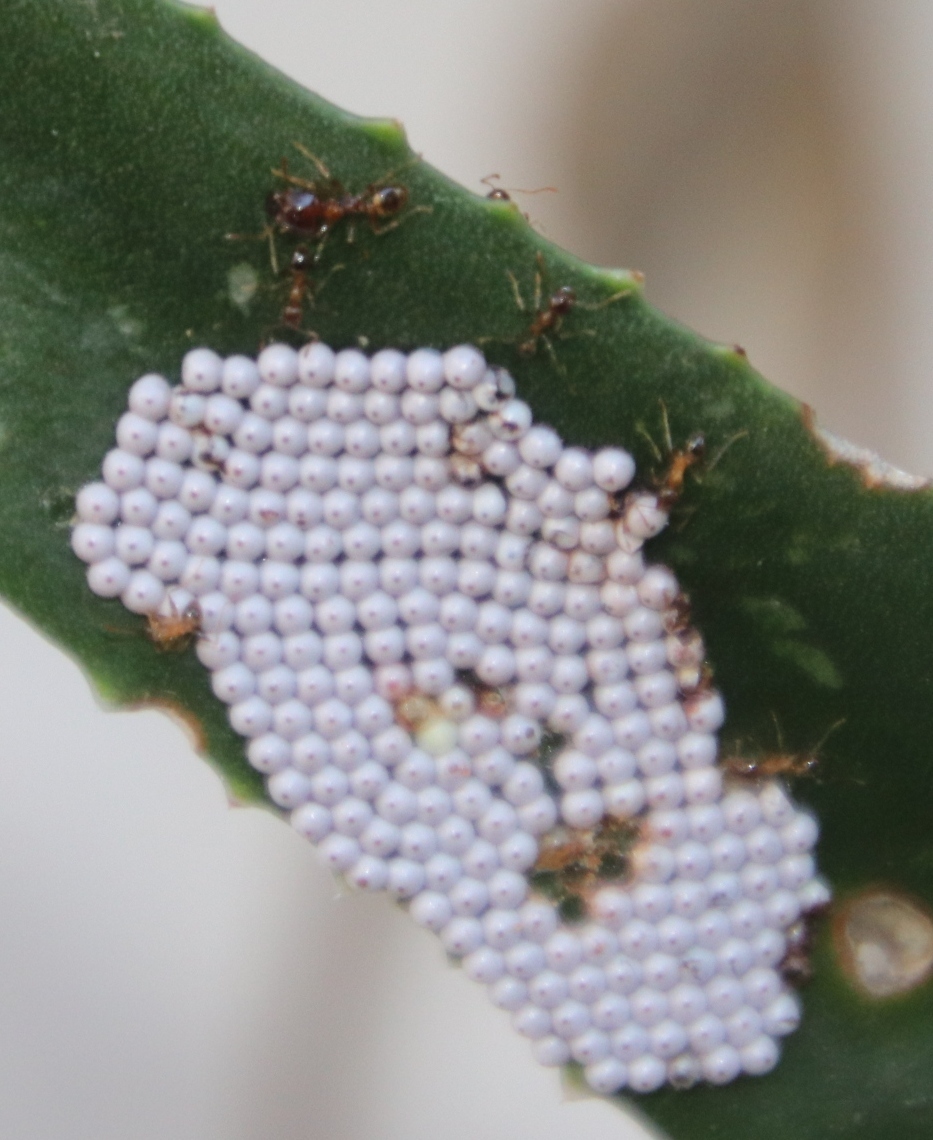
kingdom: Animalia
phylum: Arthropoda
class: Insecta
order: Hymenoptera
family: Formicidae
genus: Pheidole
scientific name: Pheidole megacephala
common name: Bigheaded ant
